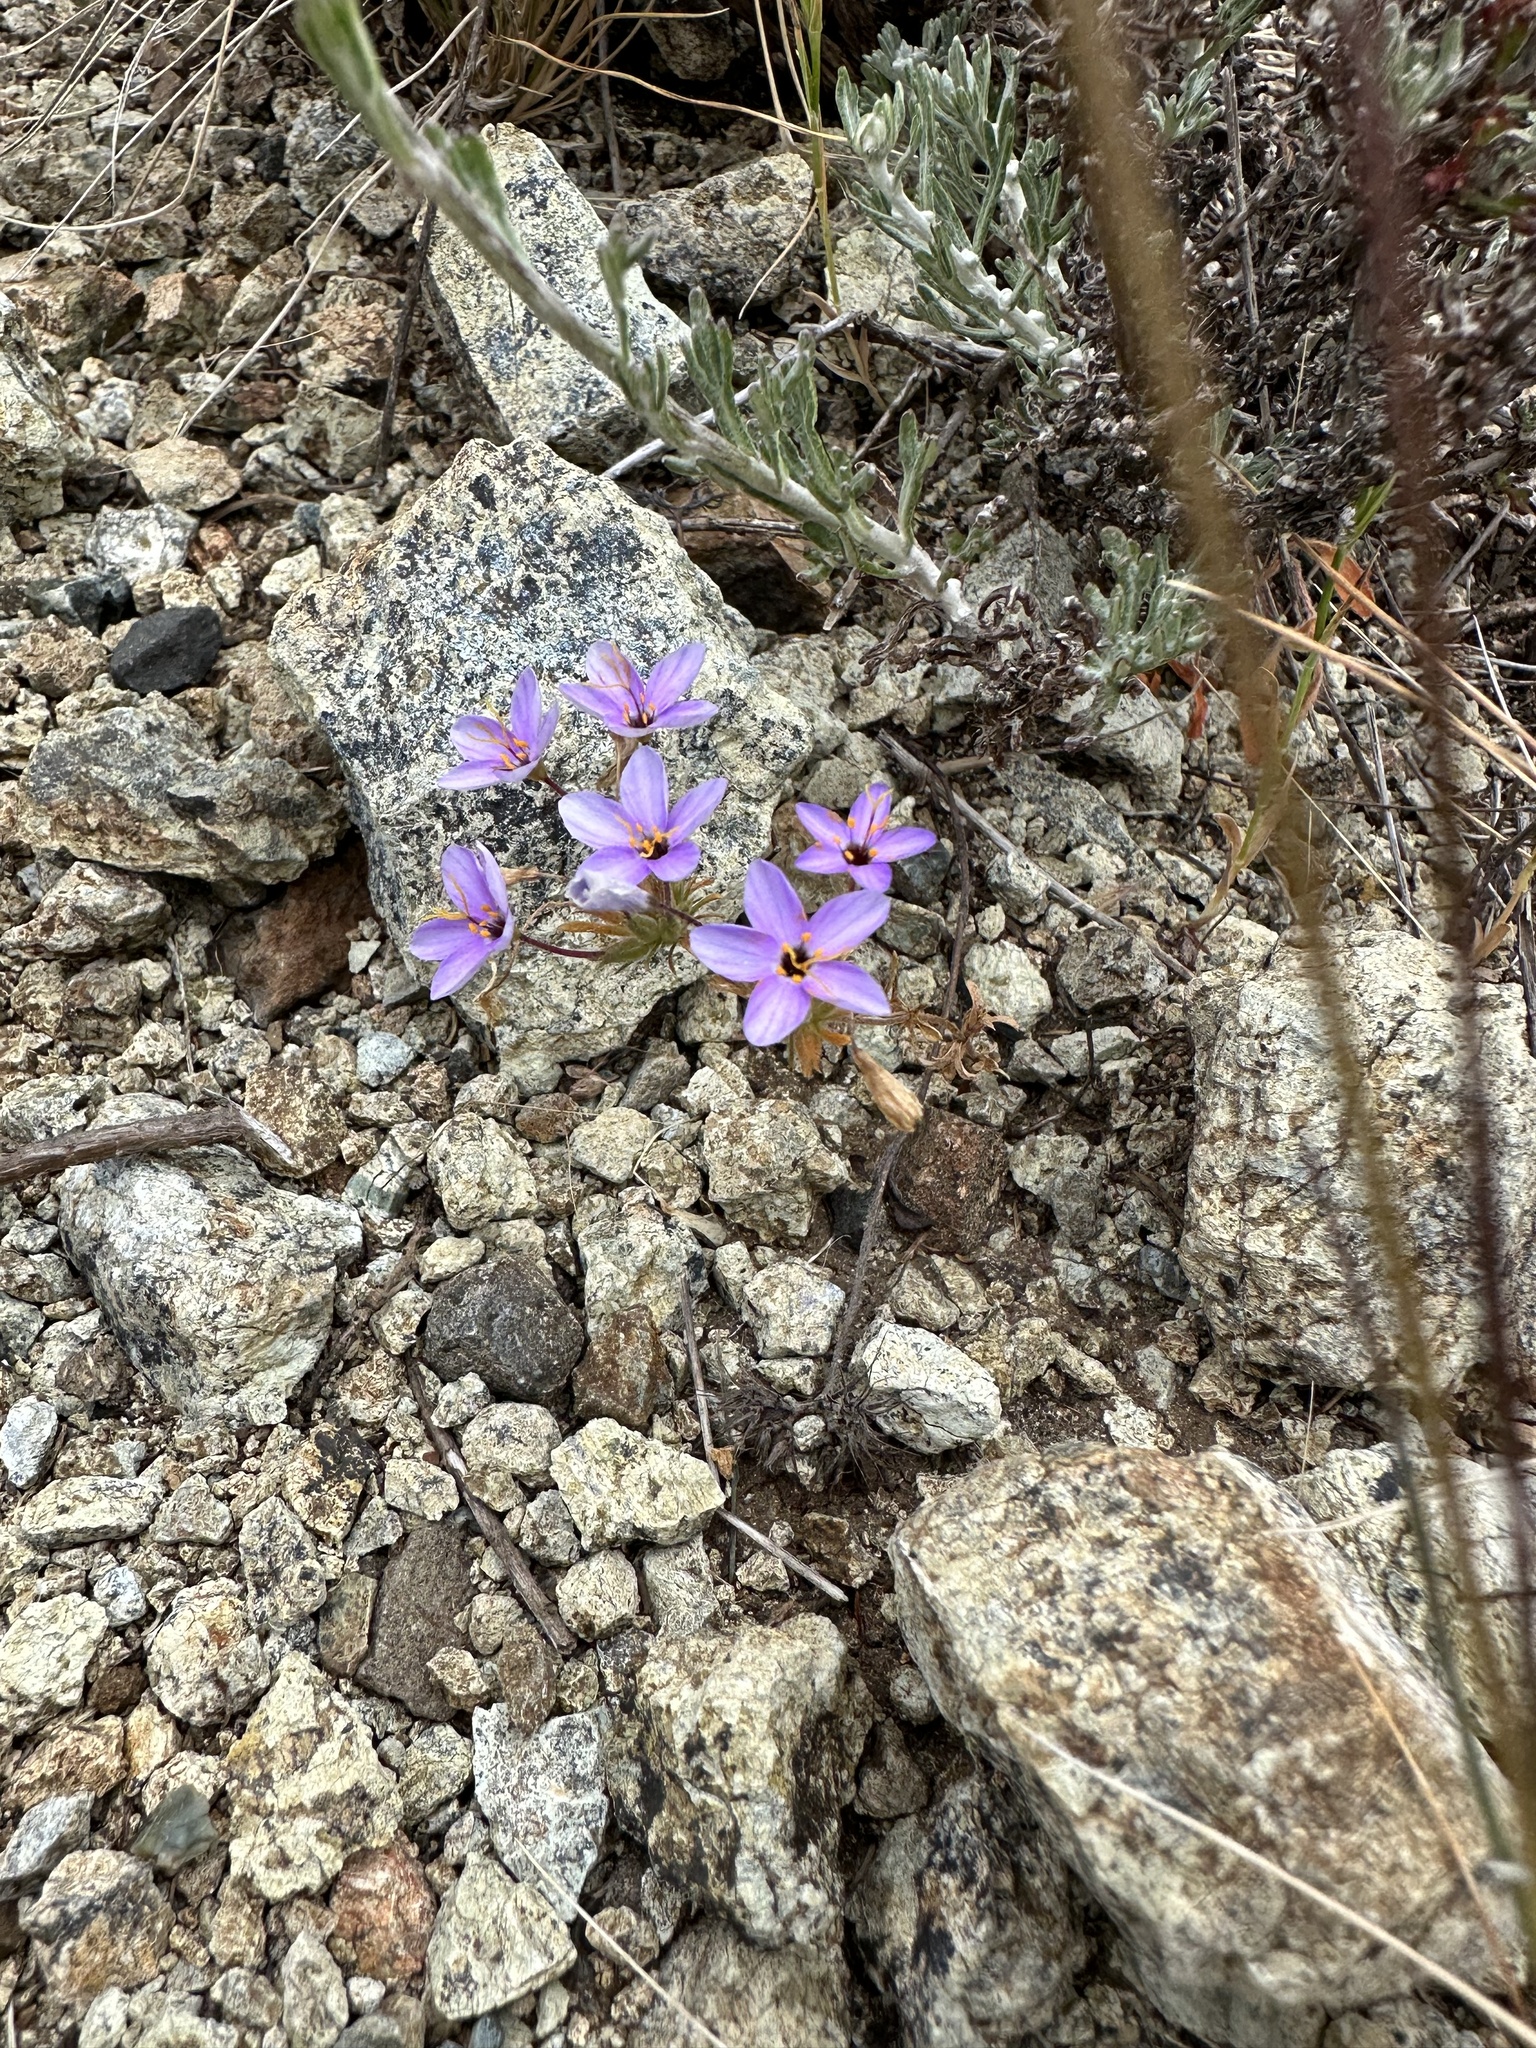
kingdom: Plantae
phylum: Tracheophyta
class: Magnoliopsida
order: Ericales
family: Polemoniaceae
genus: Leptosiphon
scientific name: Leptosiphon parviflorus
